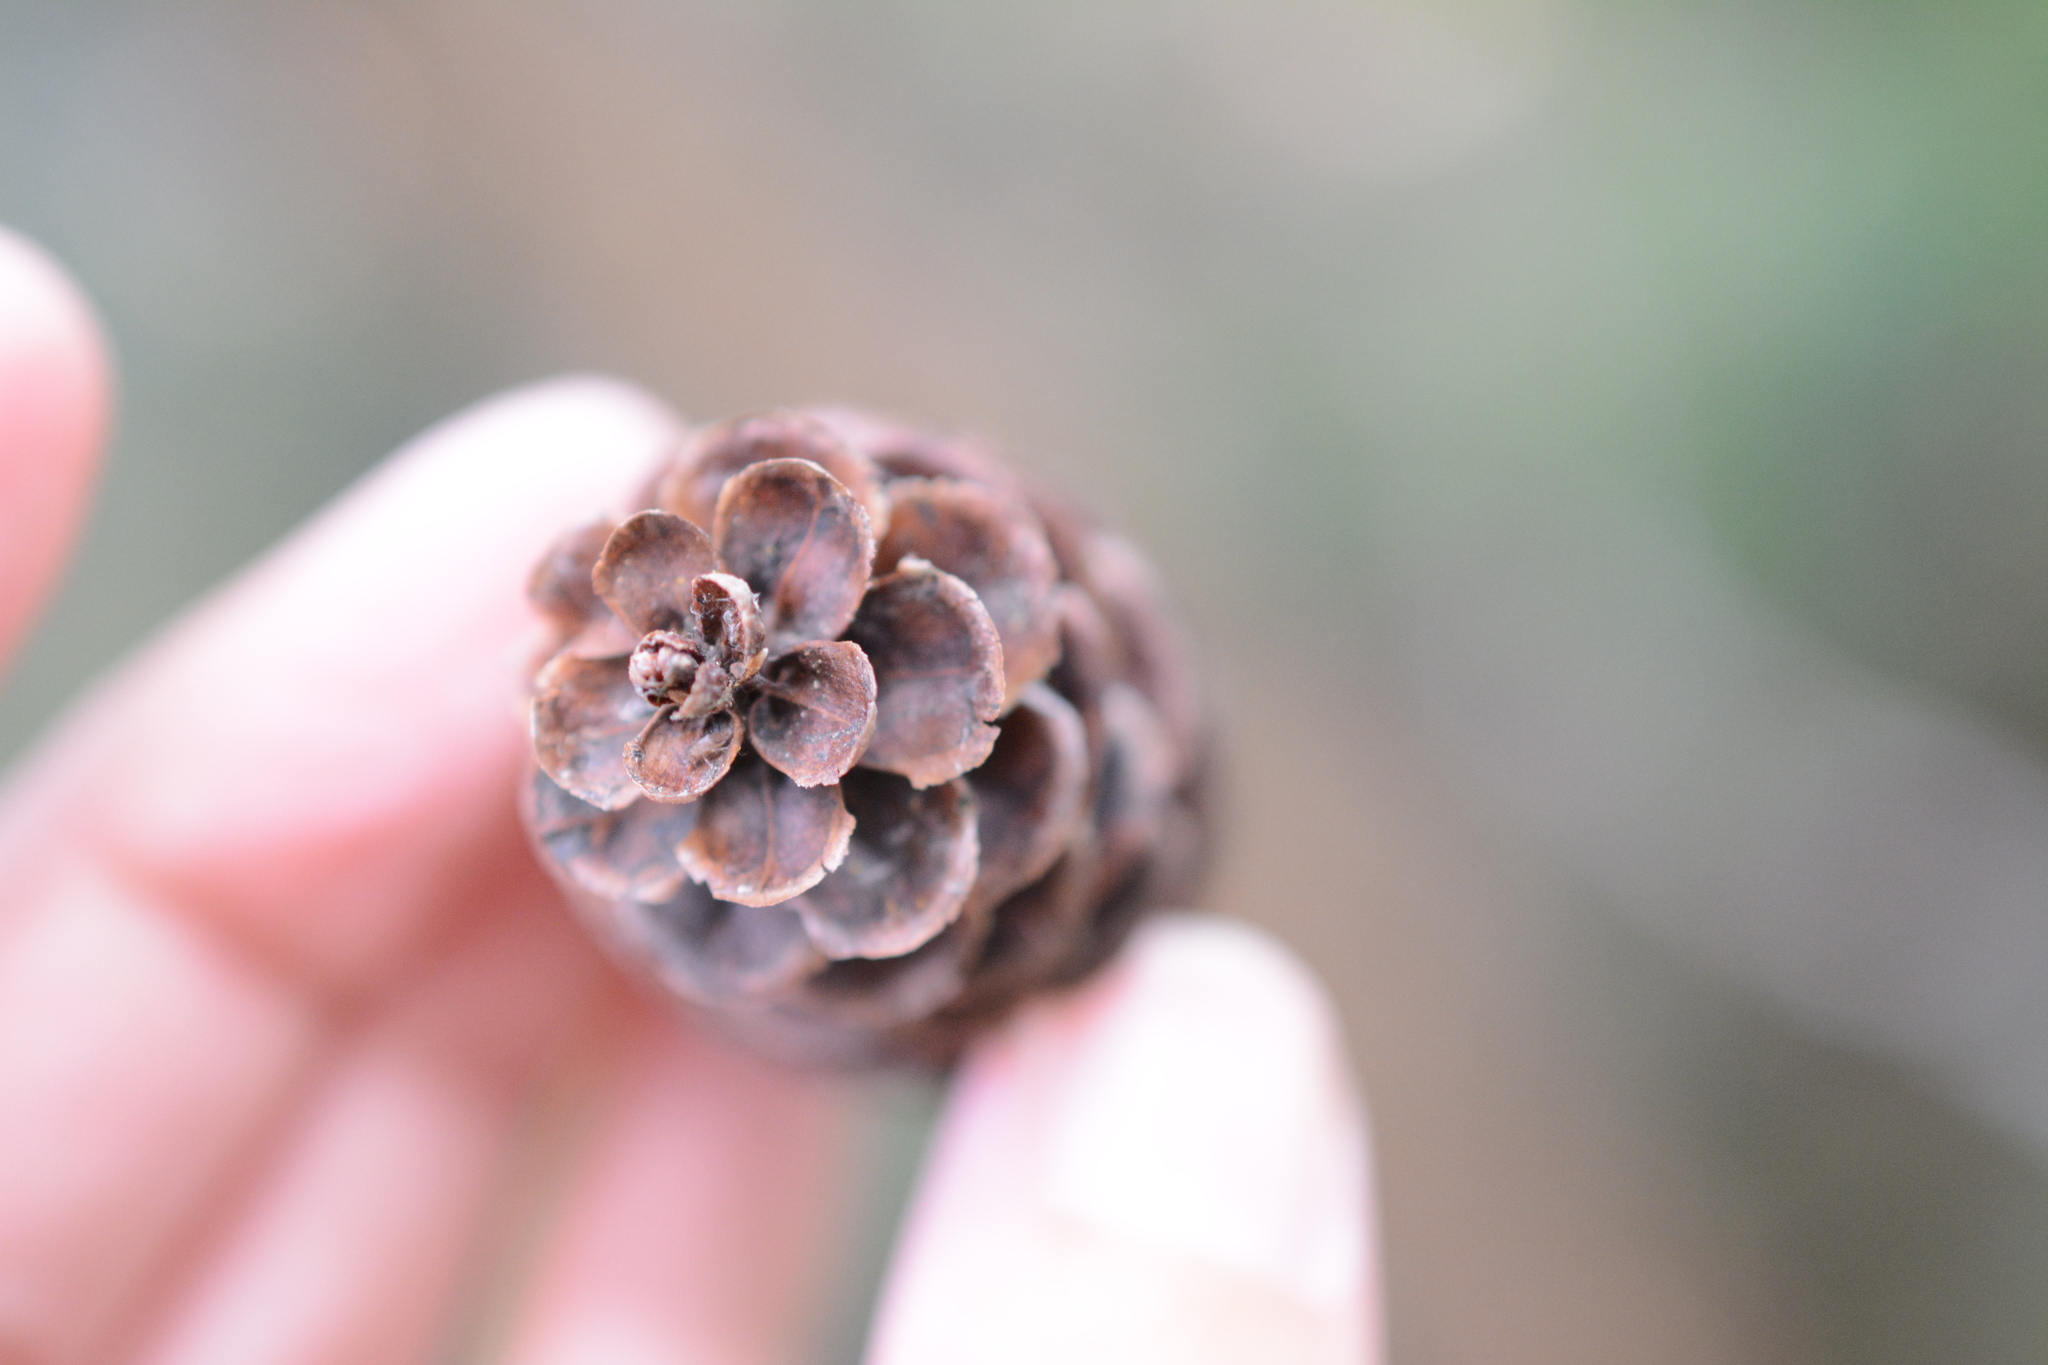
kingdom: Plantae
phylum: Tracheophyta
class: Pinopsida
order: Pinales
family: Pinaceae
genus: Tsuga
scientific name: Tsuga mertensiana
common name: Mountain hemlock
